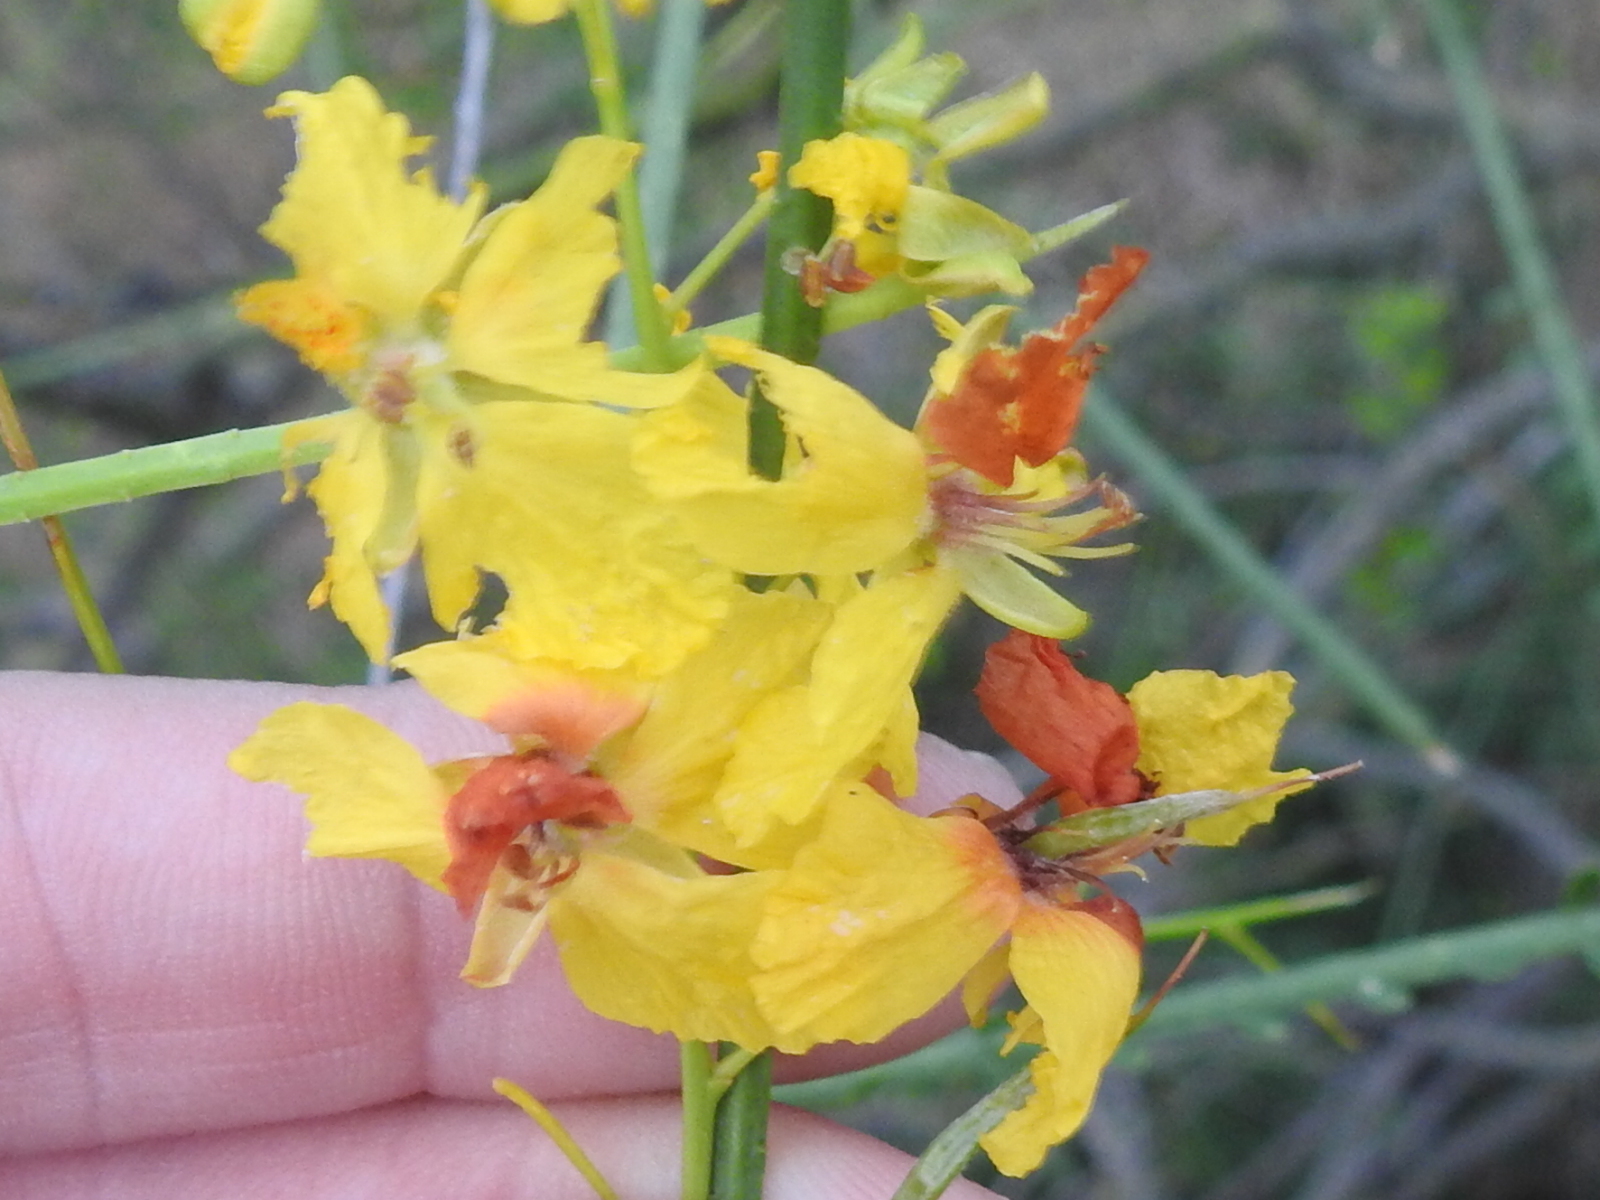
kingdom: Plantae
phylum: Tracheophyta
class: Magnoliopsida
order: Fabales
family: Fabaceae
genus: Parkinsonia
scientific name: Parkinsonia aculeata
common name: Jerusalem thorn
